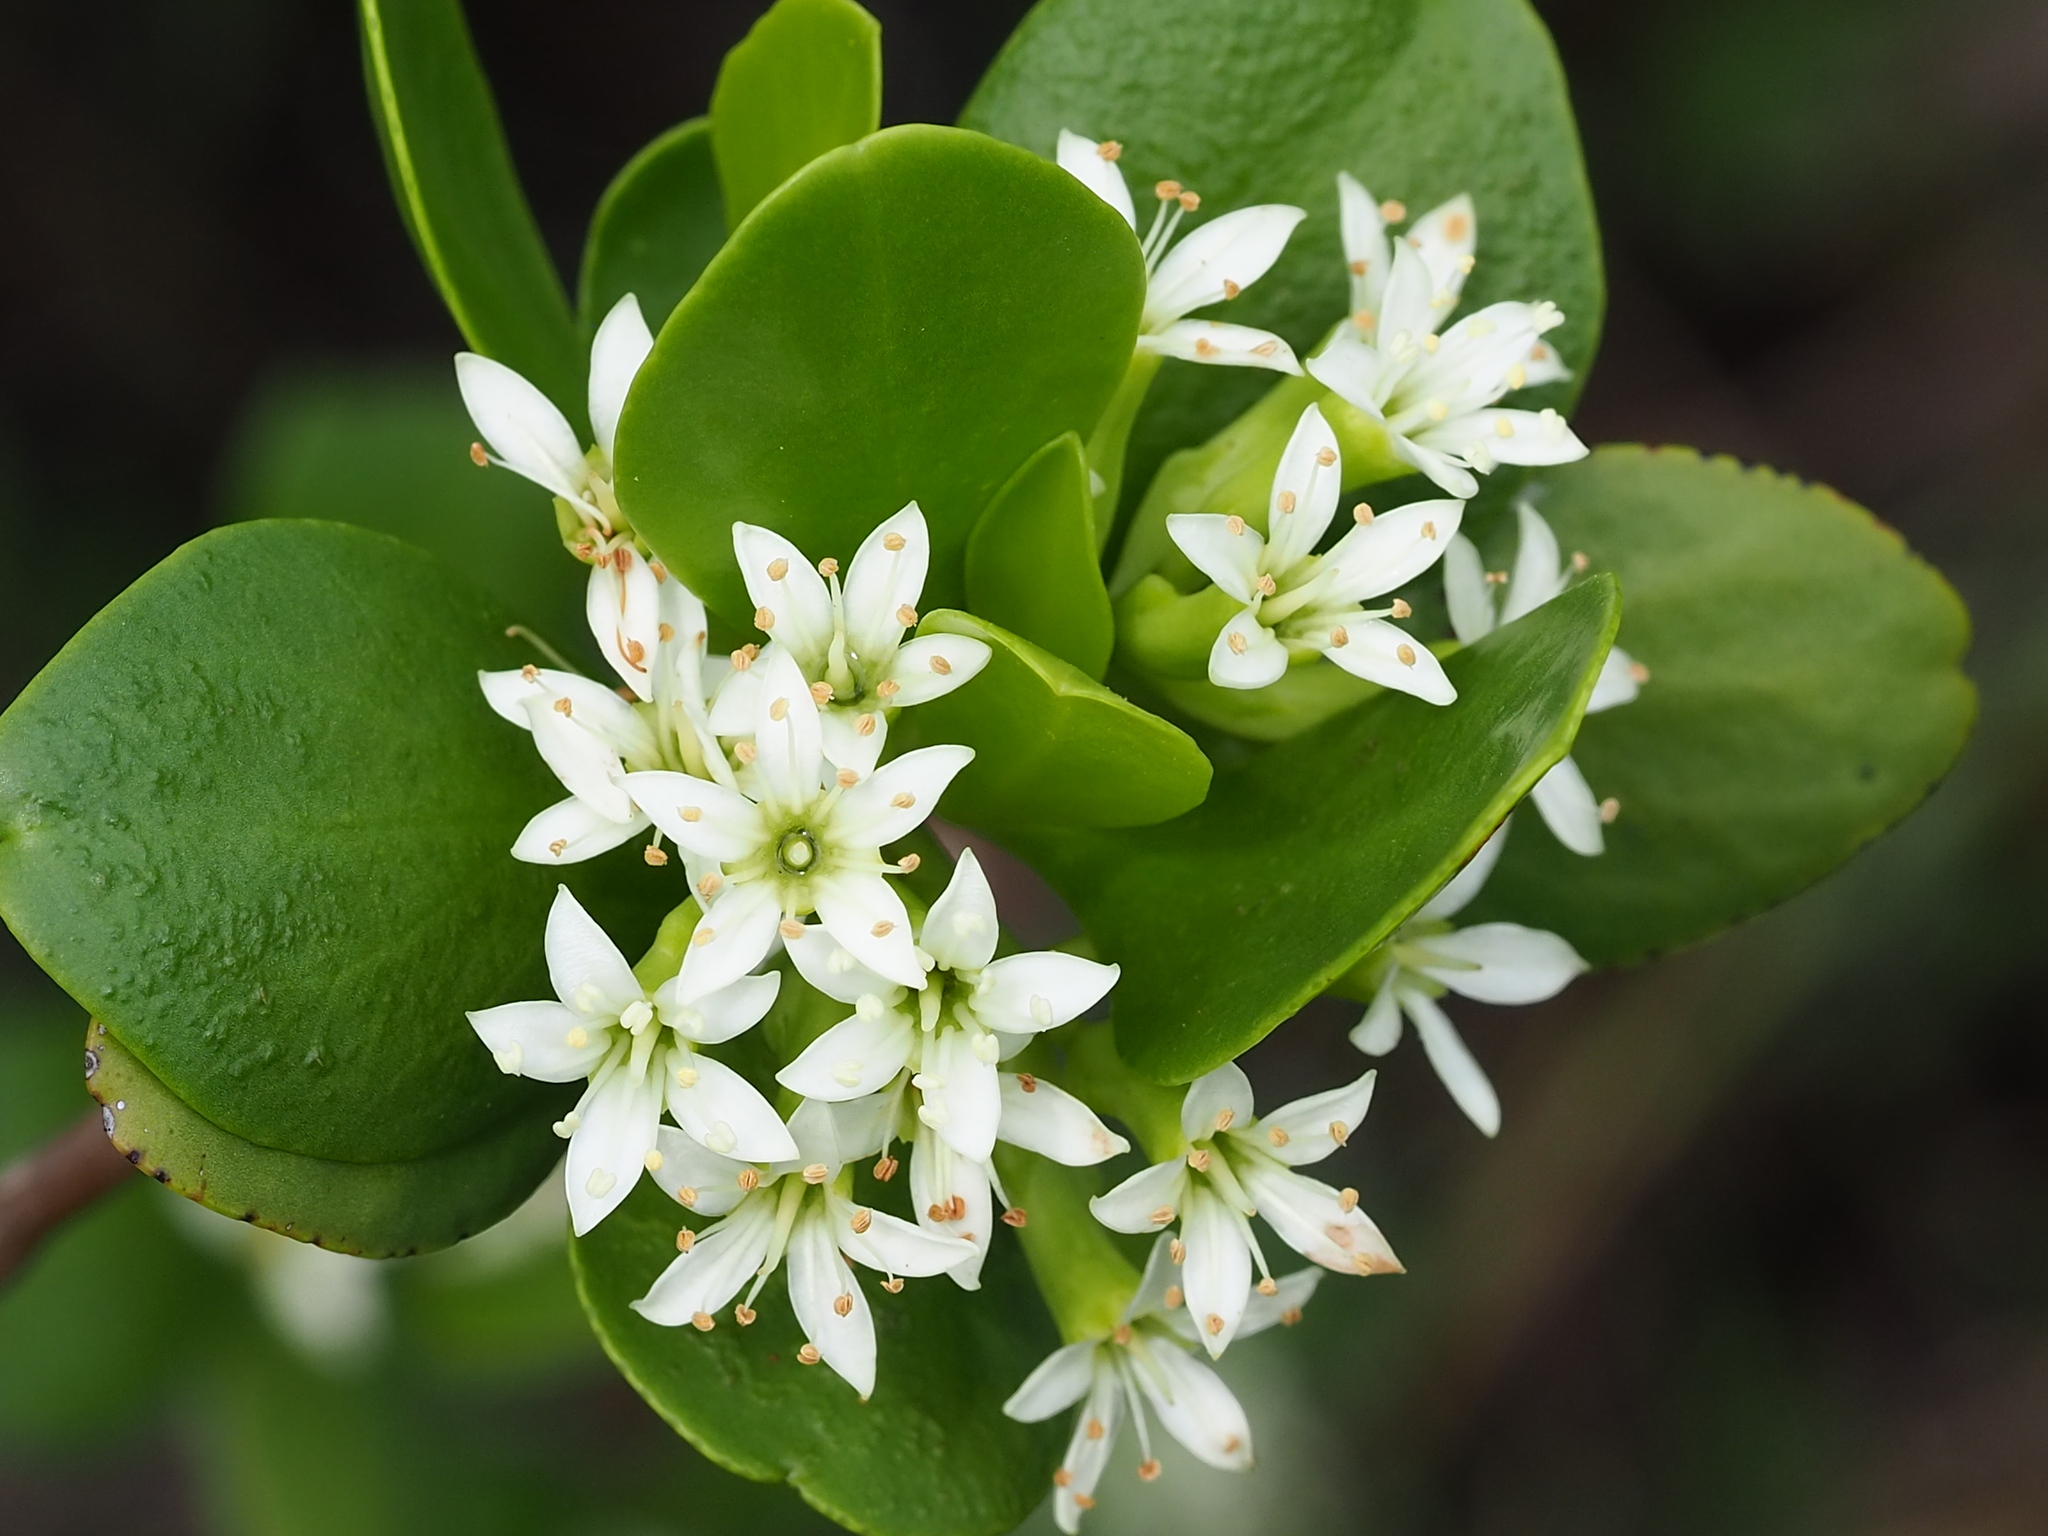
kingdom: Plantae
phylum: Tracheophyta
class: Magnoliopsida
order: Myrtales
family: Combretaceae
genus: Lumnitzera
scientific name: Lumnitzera racemosa
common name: White-flowered black mangrove
